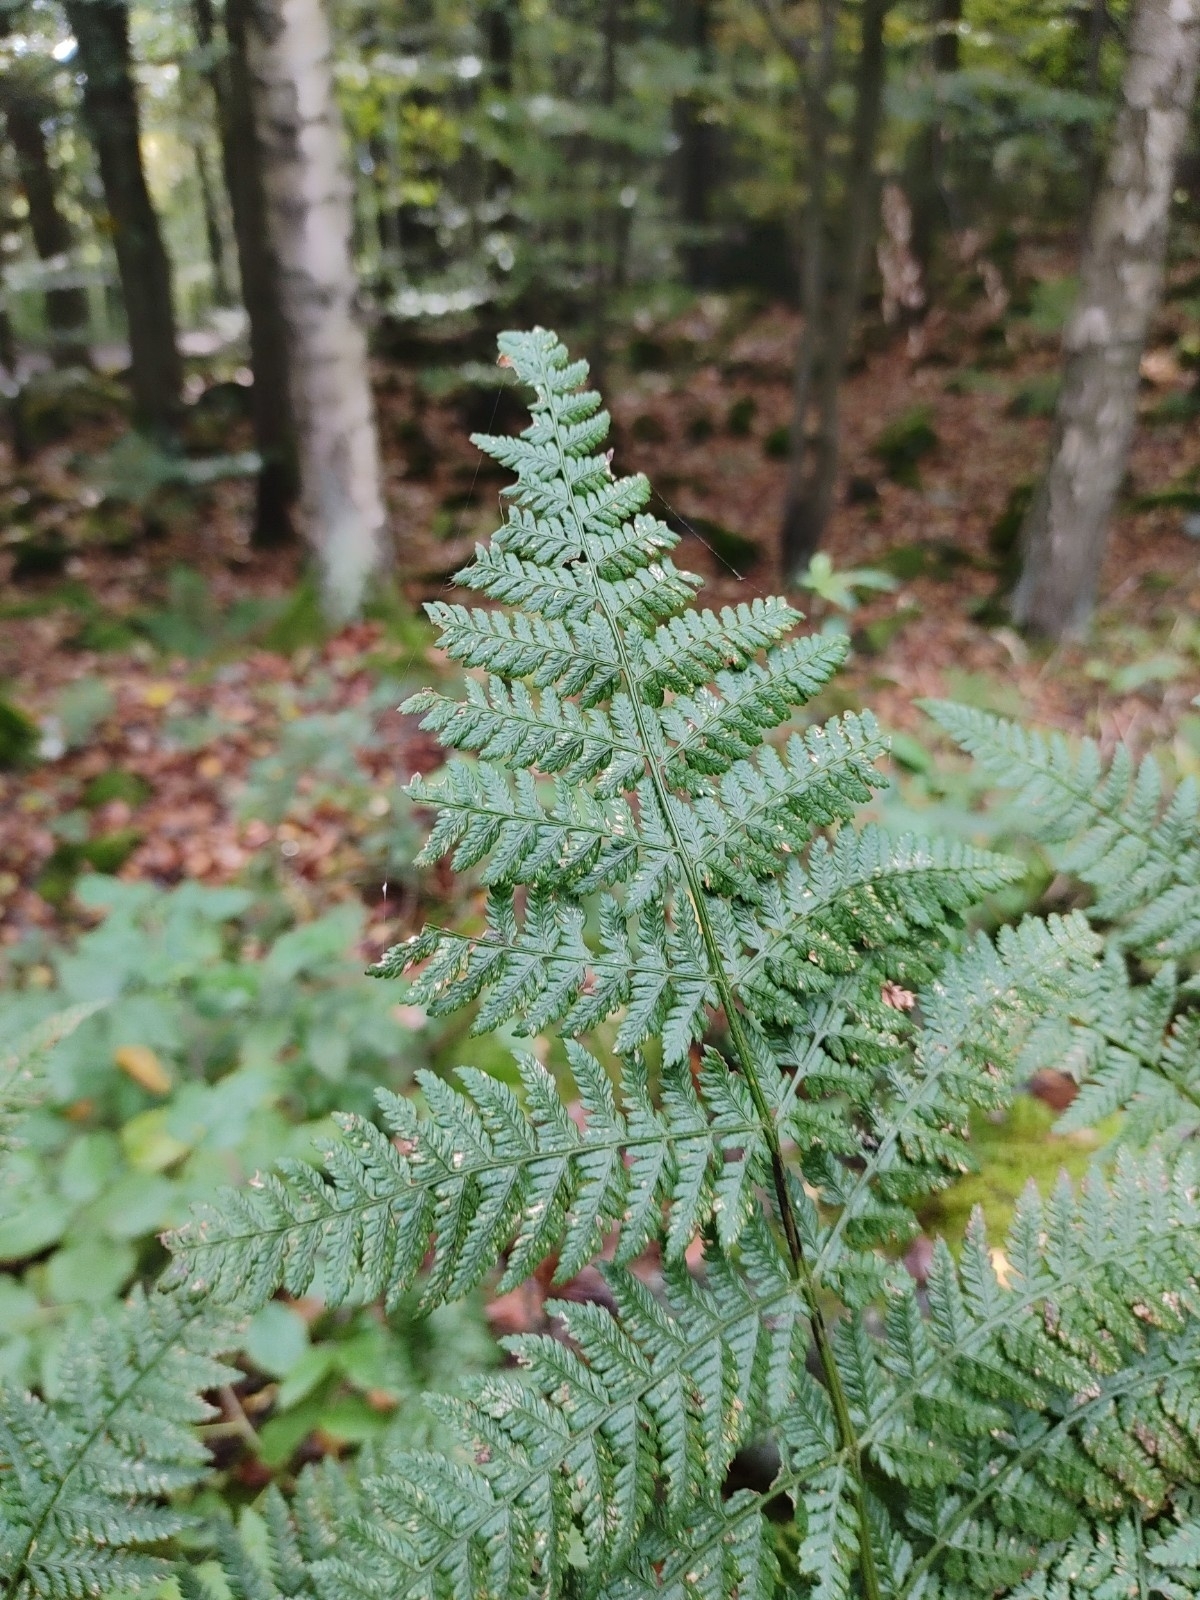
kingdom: Plantae
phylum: Tracheophyta
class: Polypodiopsida
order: Polypodiales
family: Dryopteridaceae
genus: Dryopteris
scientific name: Dryopteris dilatata
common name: Broad buckler-fern
